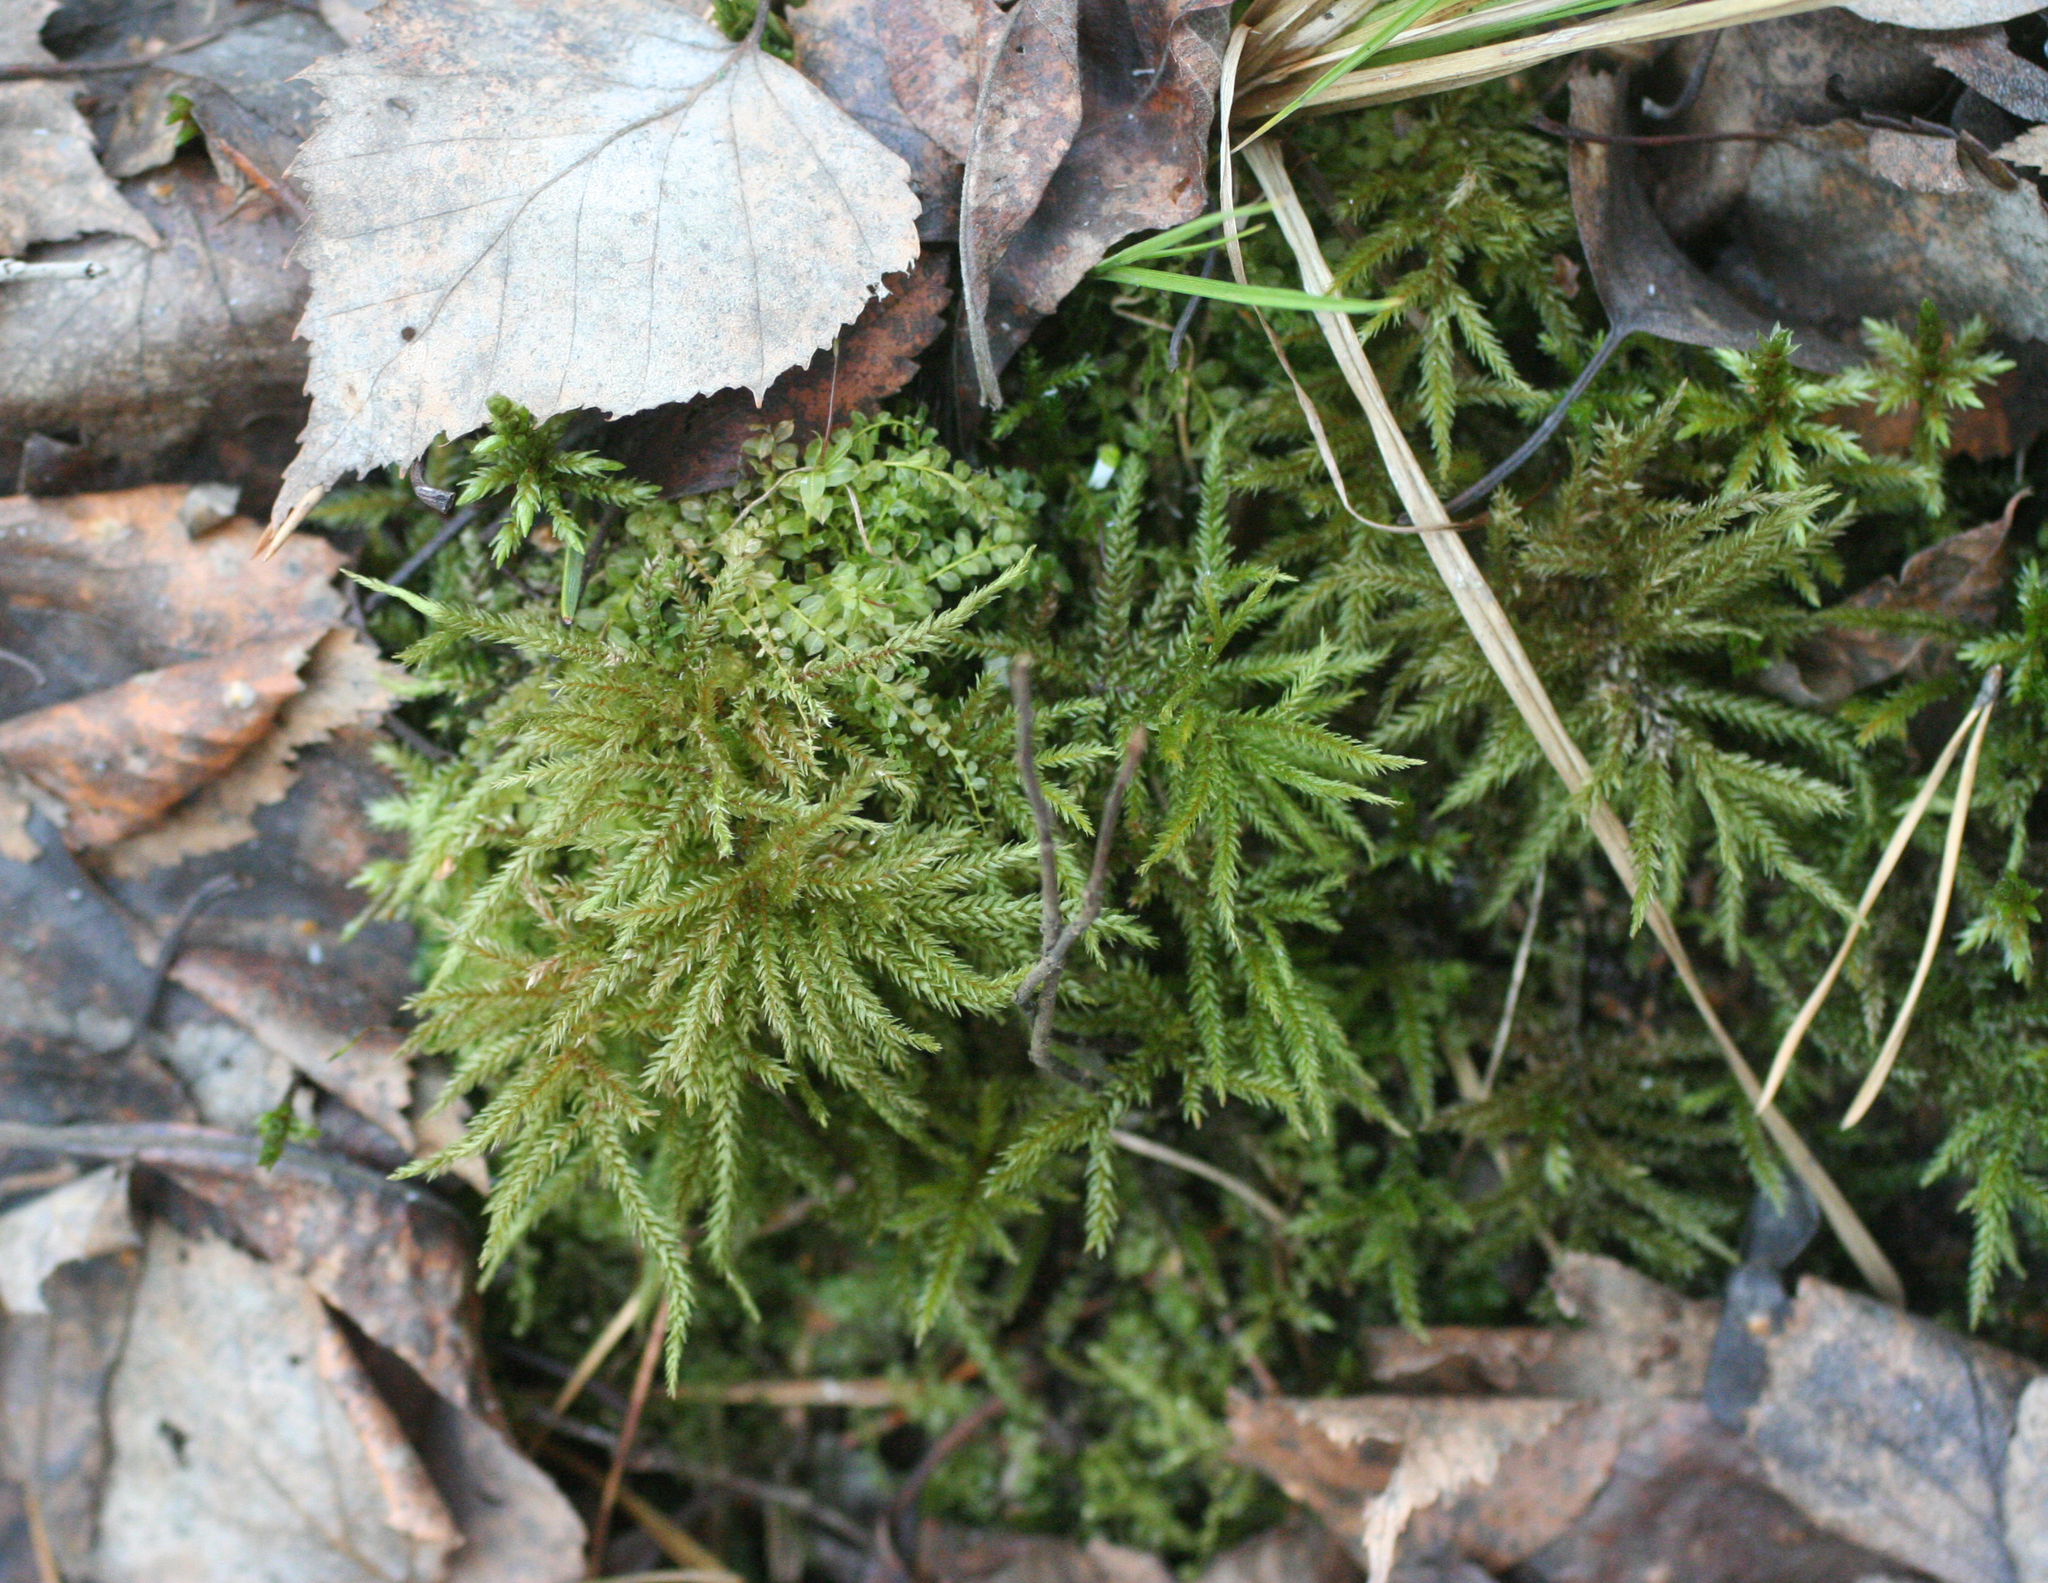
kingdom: Plantae
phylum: Bryophyta
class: Bryopsida
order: Hypnales
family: Climaciaceae
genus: Climacium
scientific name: Climacium dendroides
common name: Northern tree moss
